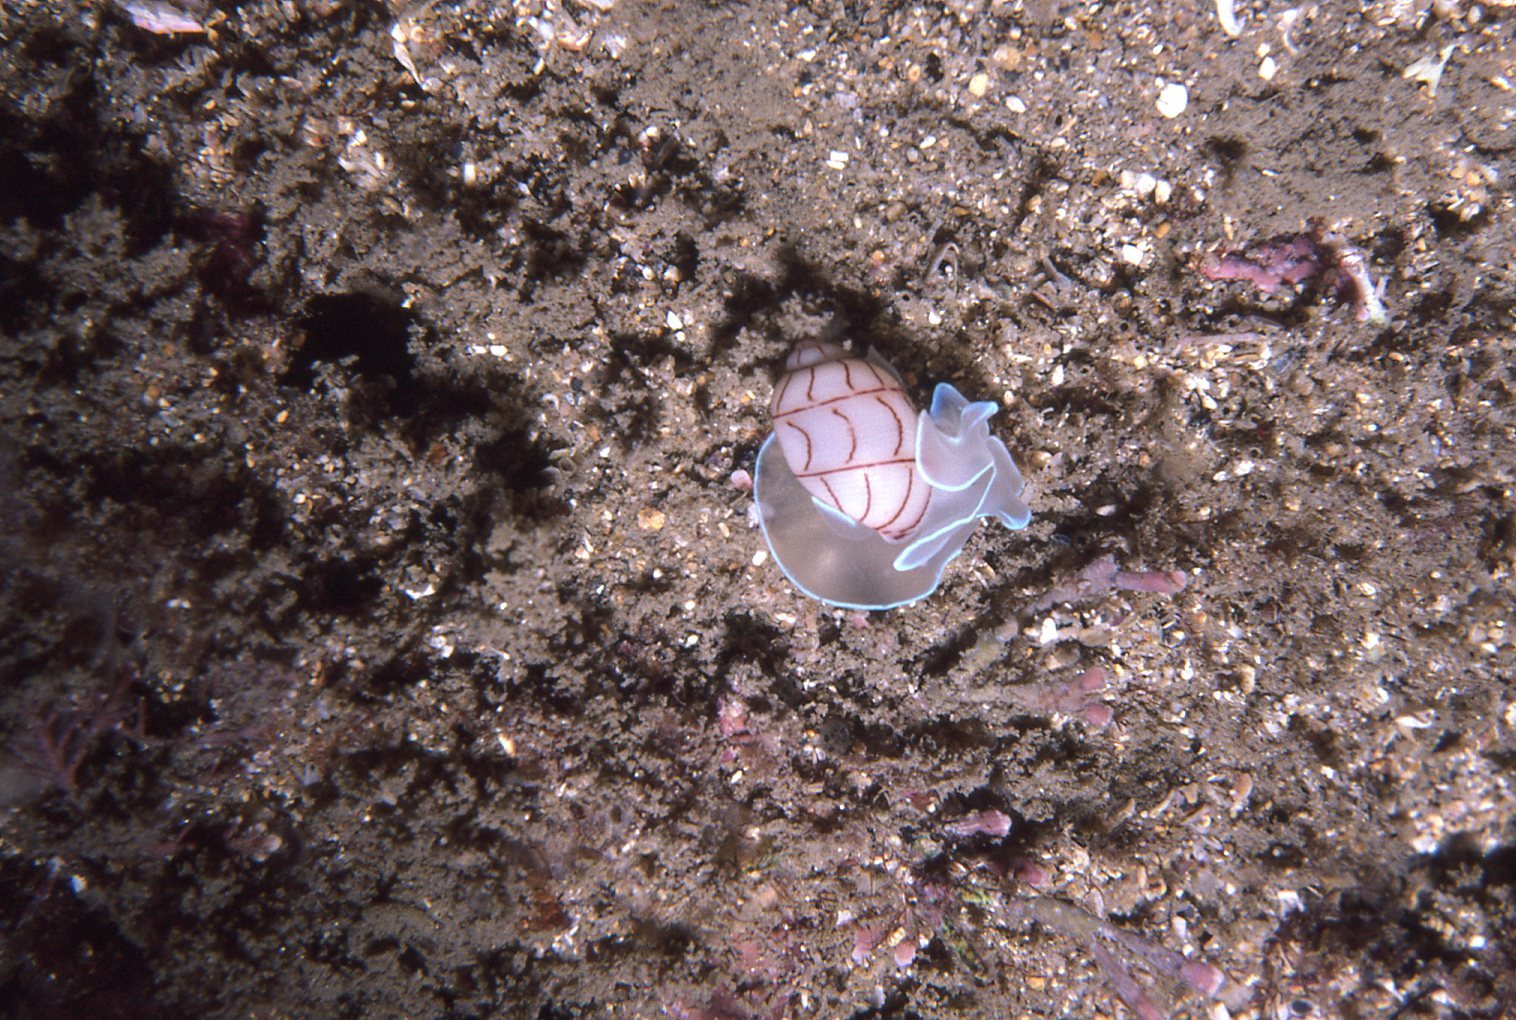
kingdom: Animalia
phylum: Mollusca
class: Gastropoda
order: Cephalaspidea
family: Aplustridae
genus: Bullina
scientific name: Bullina lineata
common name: Lined bubble snail
